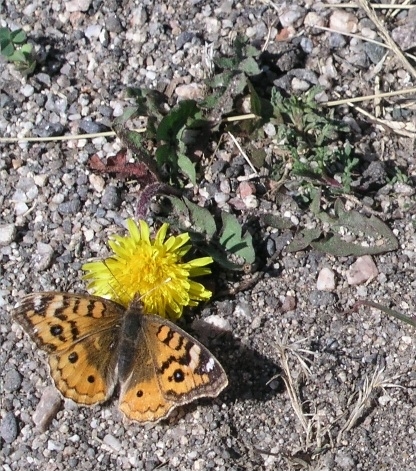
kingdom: Animalia
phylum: Arthropoda
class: Insecta
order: Lepidoptera
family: Nymphalidae
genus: Junonia
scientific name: Junonia vestina
